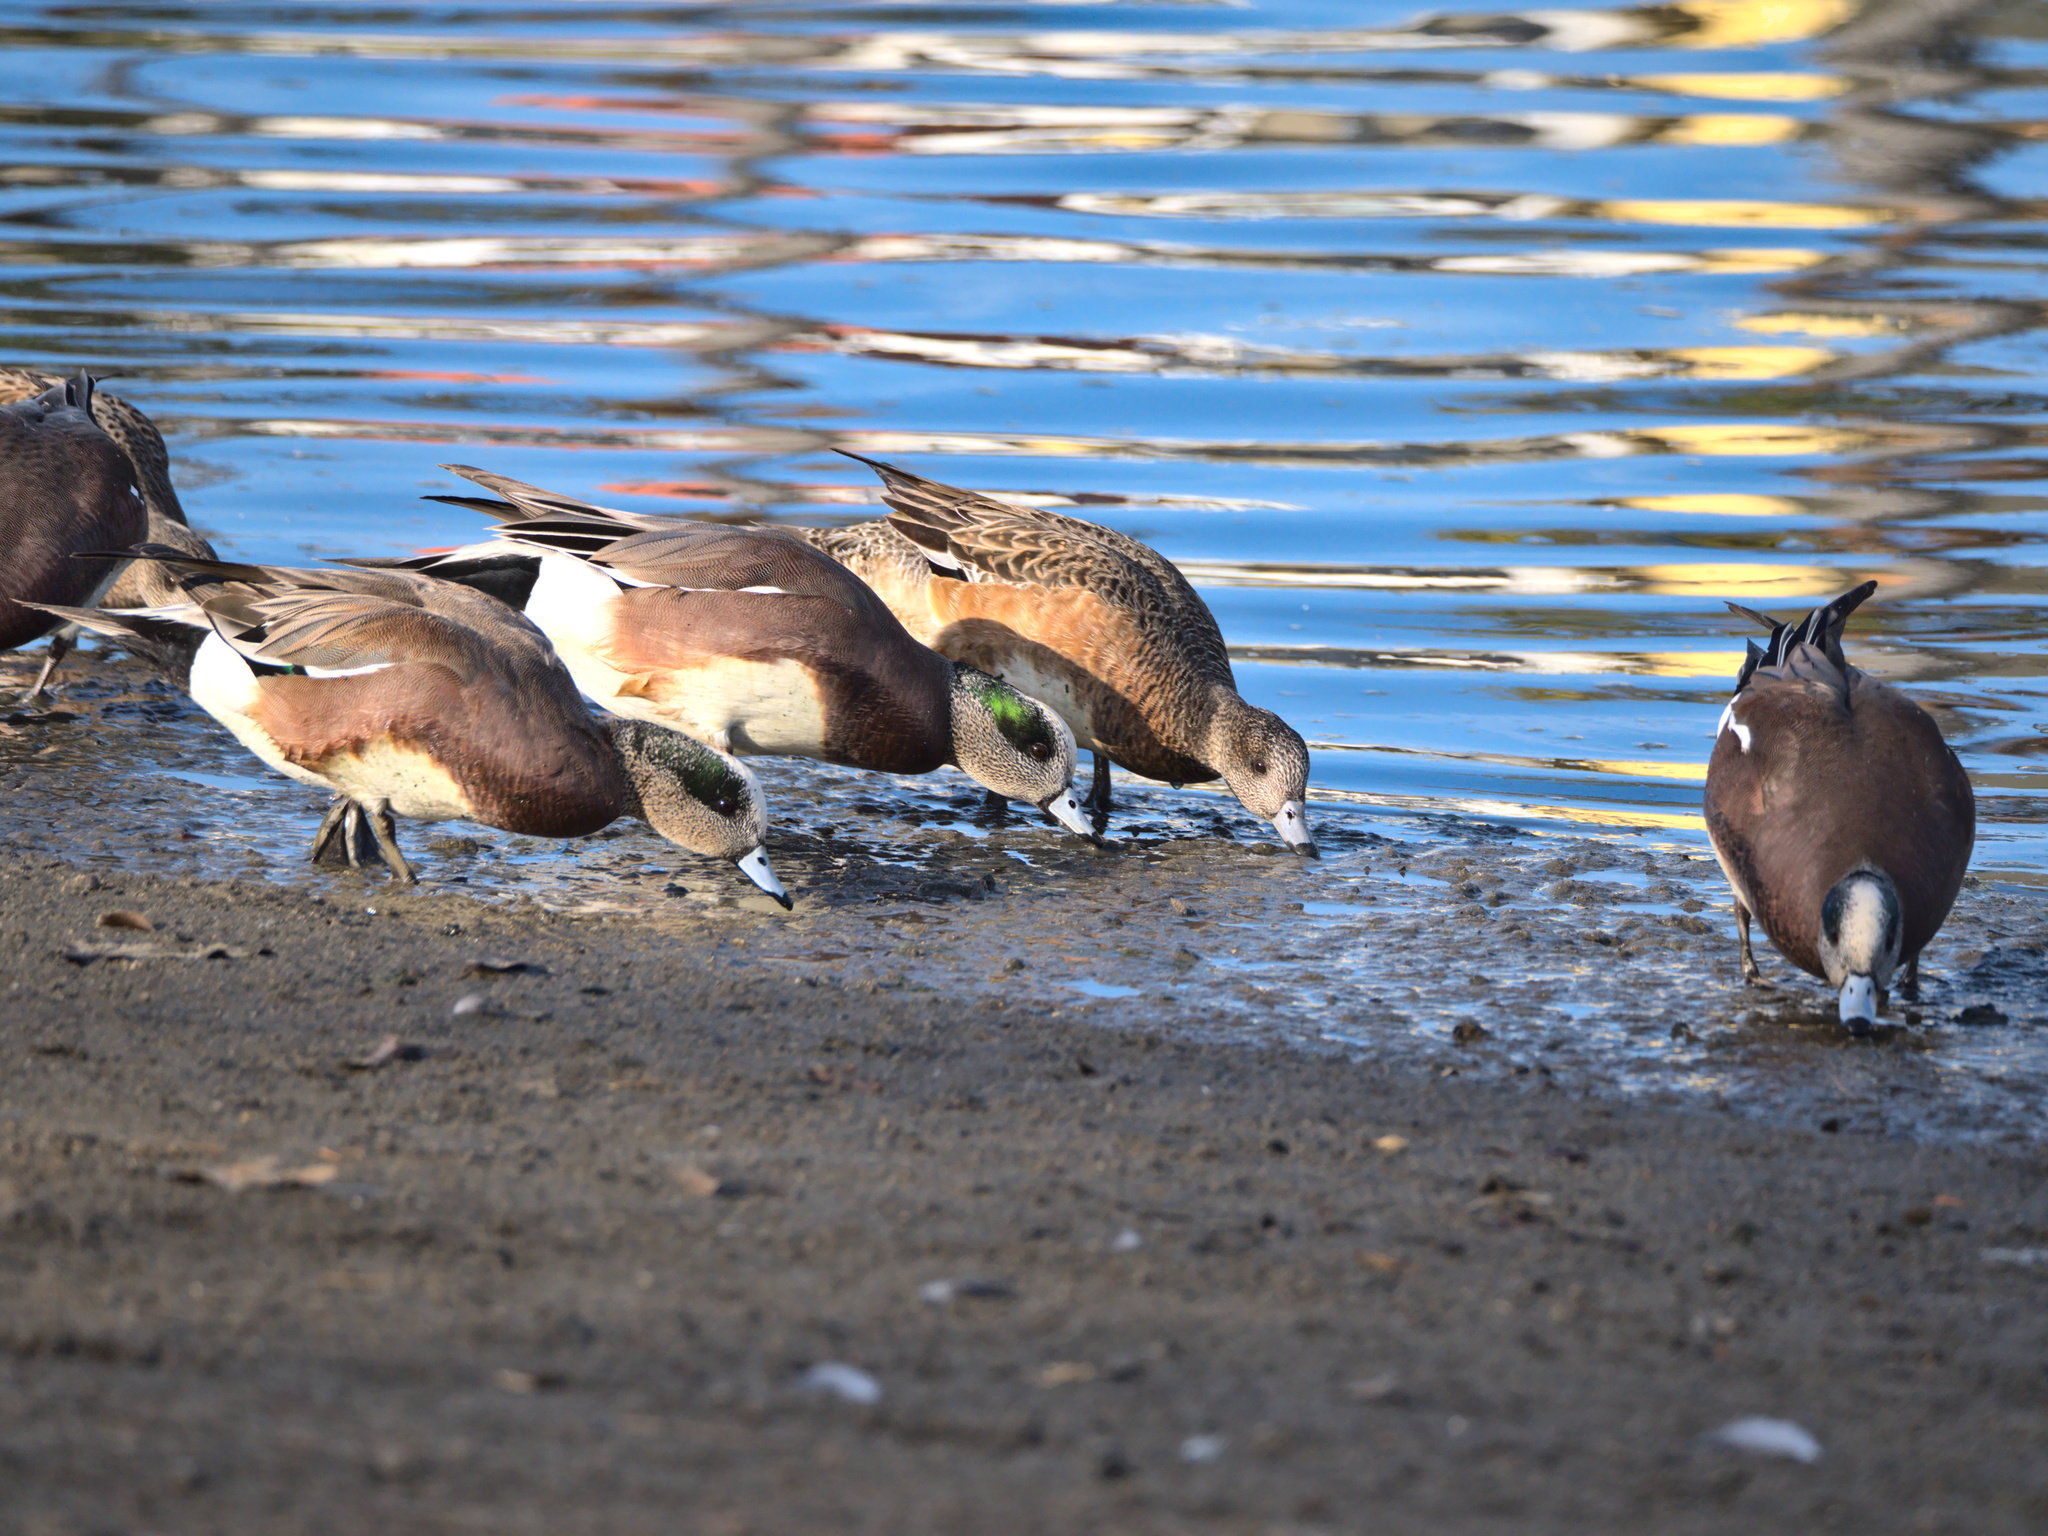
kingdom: Animalia
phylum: Chordata
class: Aves
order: Anseriformes
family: Anatidae
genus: Mareca
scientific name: Mareca americana
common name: American wigeon
